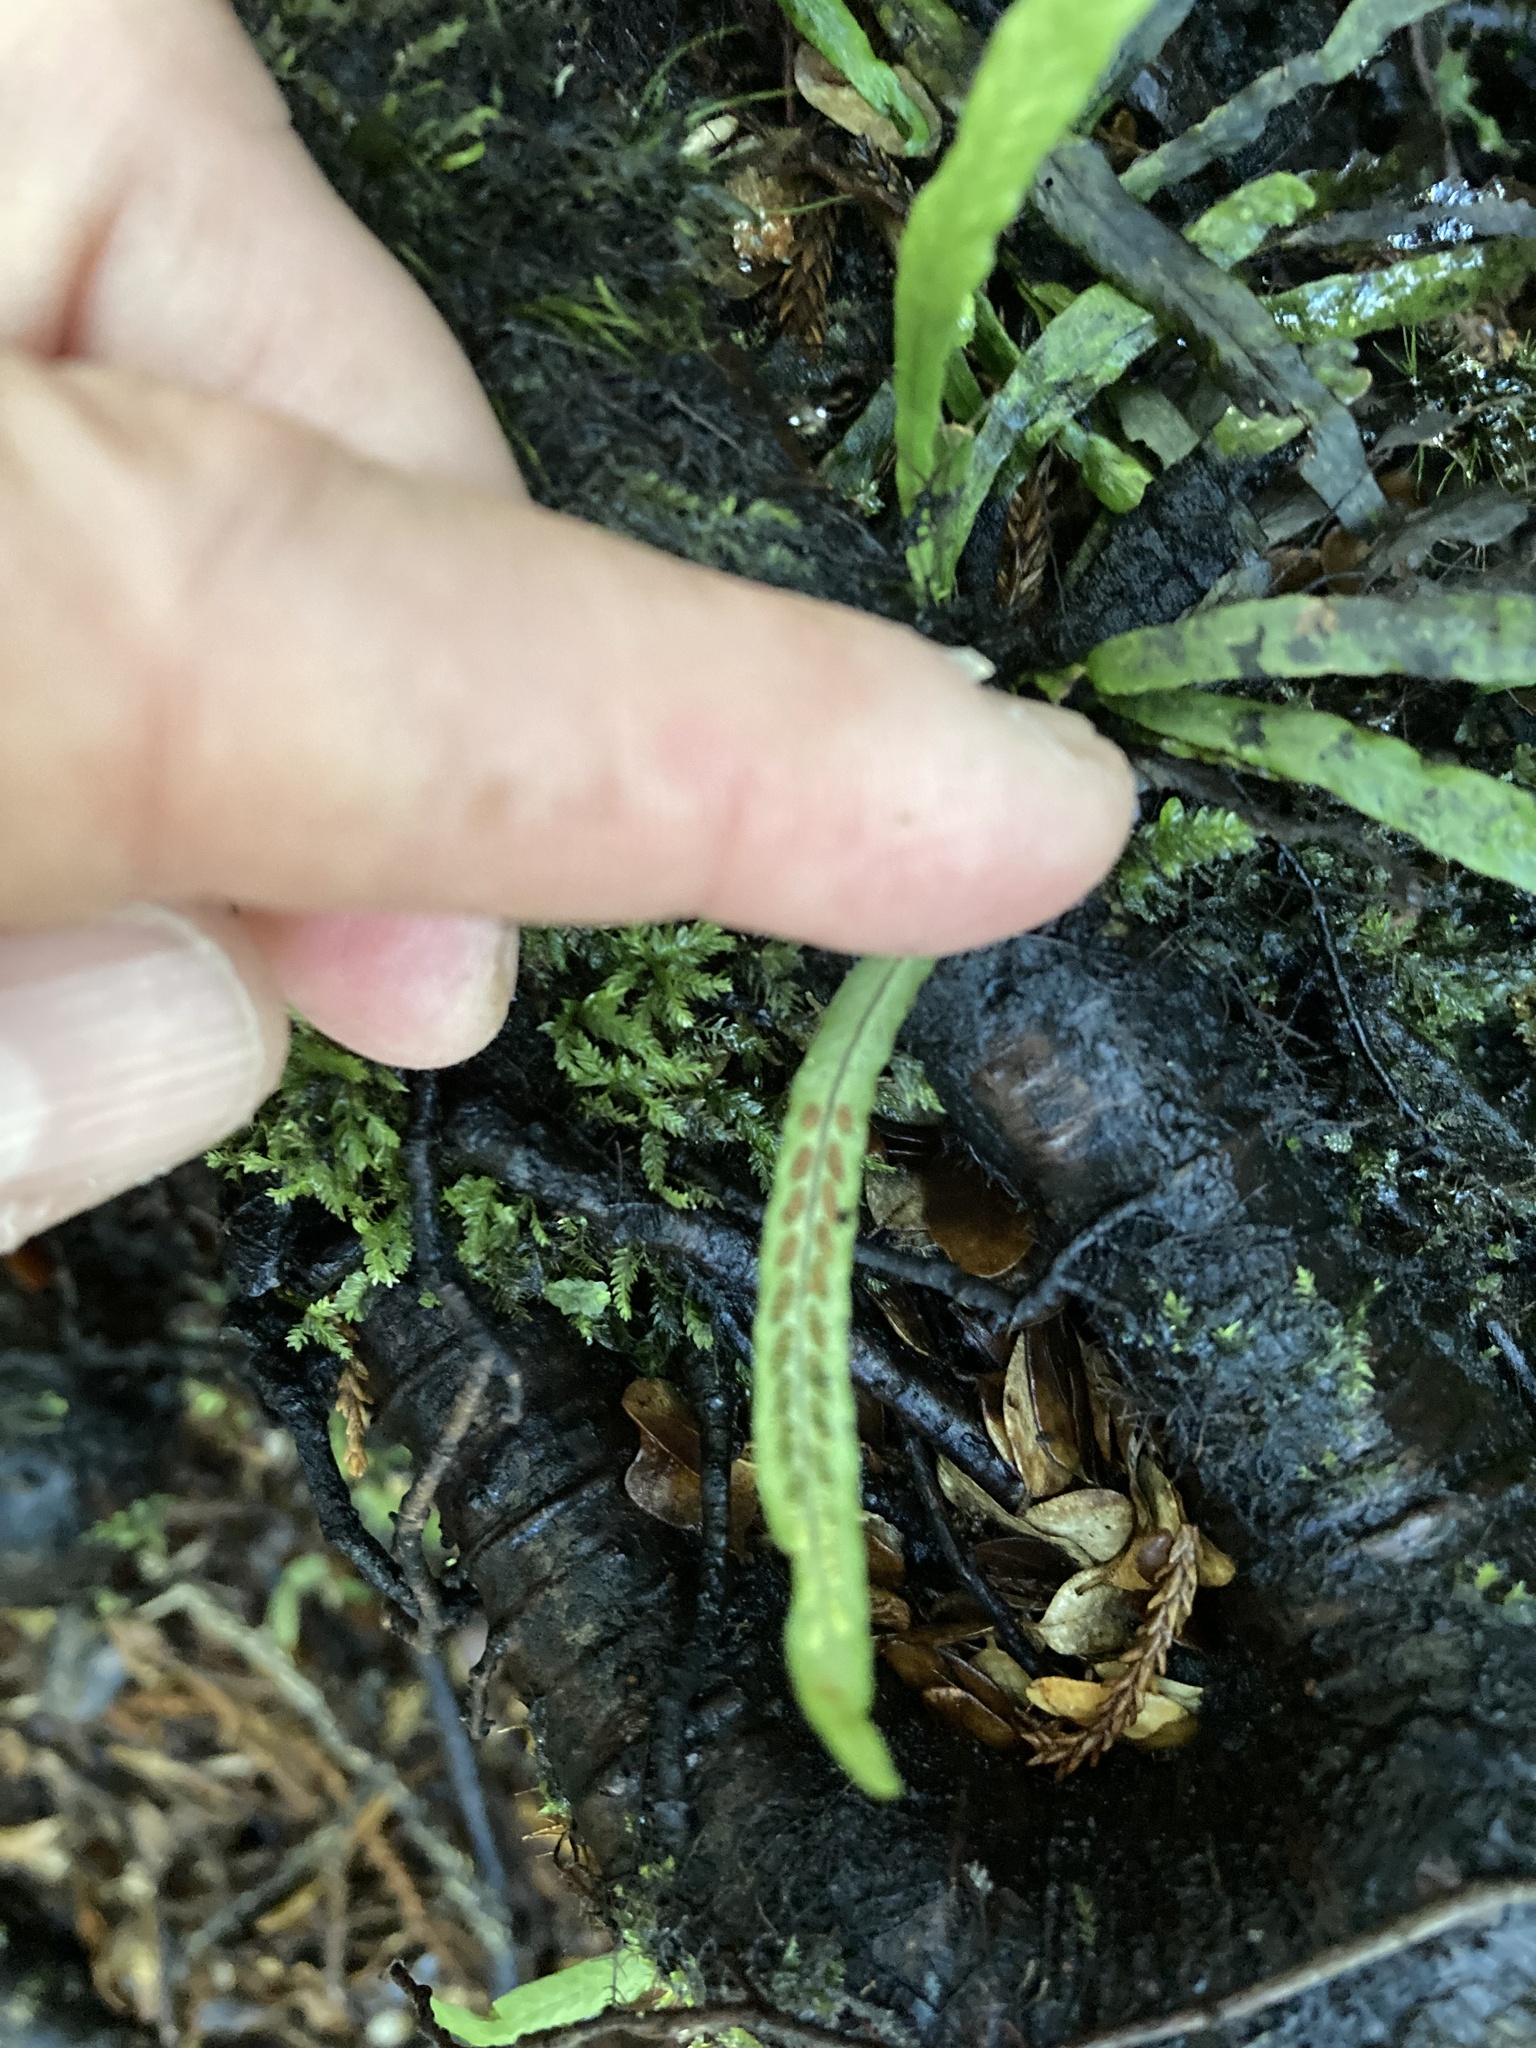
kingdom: Plantae
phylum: Tracheophyta
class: Polypodiopsida
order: Polypodiales
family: Polypodiaceae
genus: Notogrammitis
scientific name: Notogrammitis billardierei
